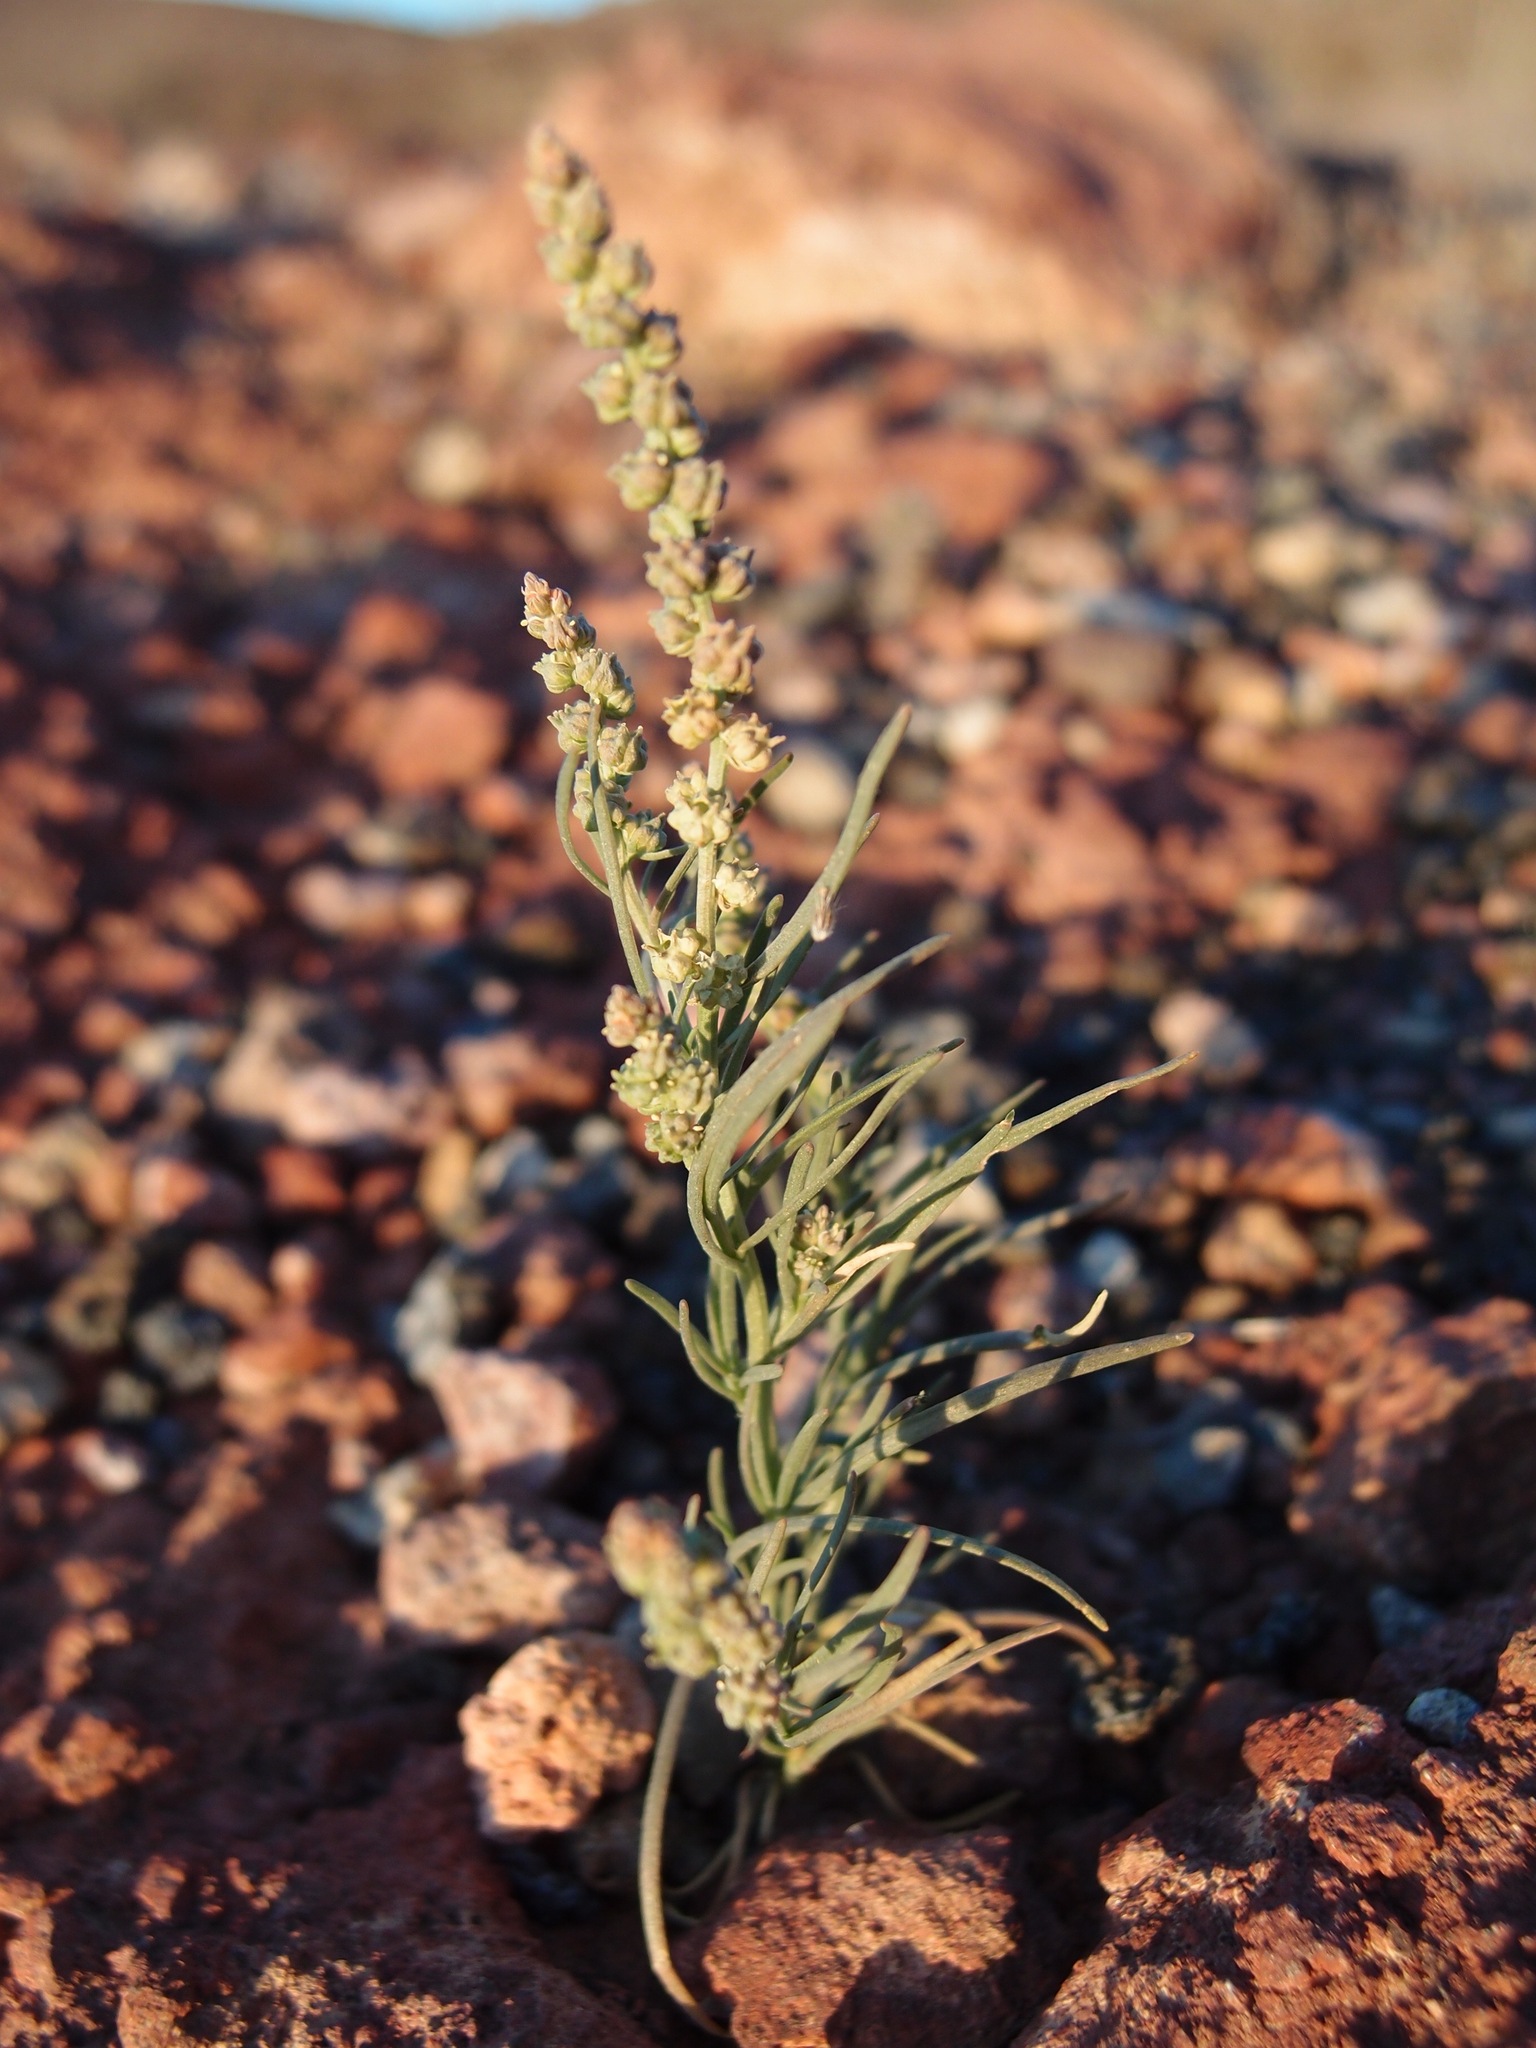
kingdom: Plantae
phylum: Tracheophyta
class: Magnoliopsida
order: Brassicales
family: Resedaceae
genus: Oligomeris
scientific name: Oligomeris linifolia
